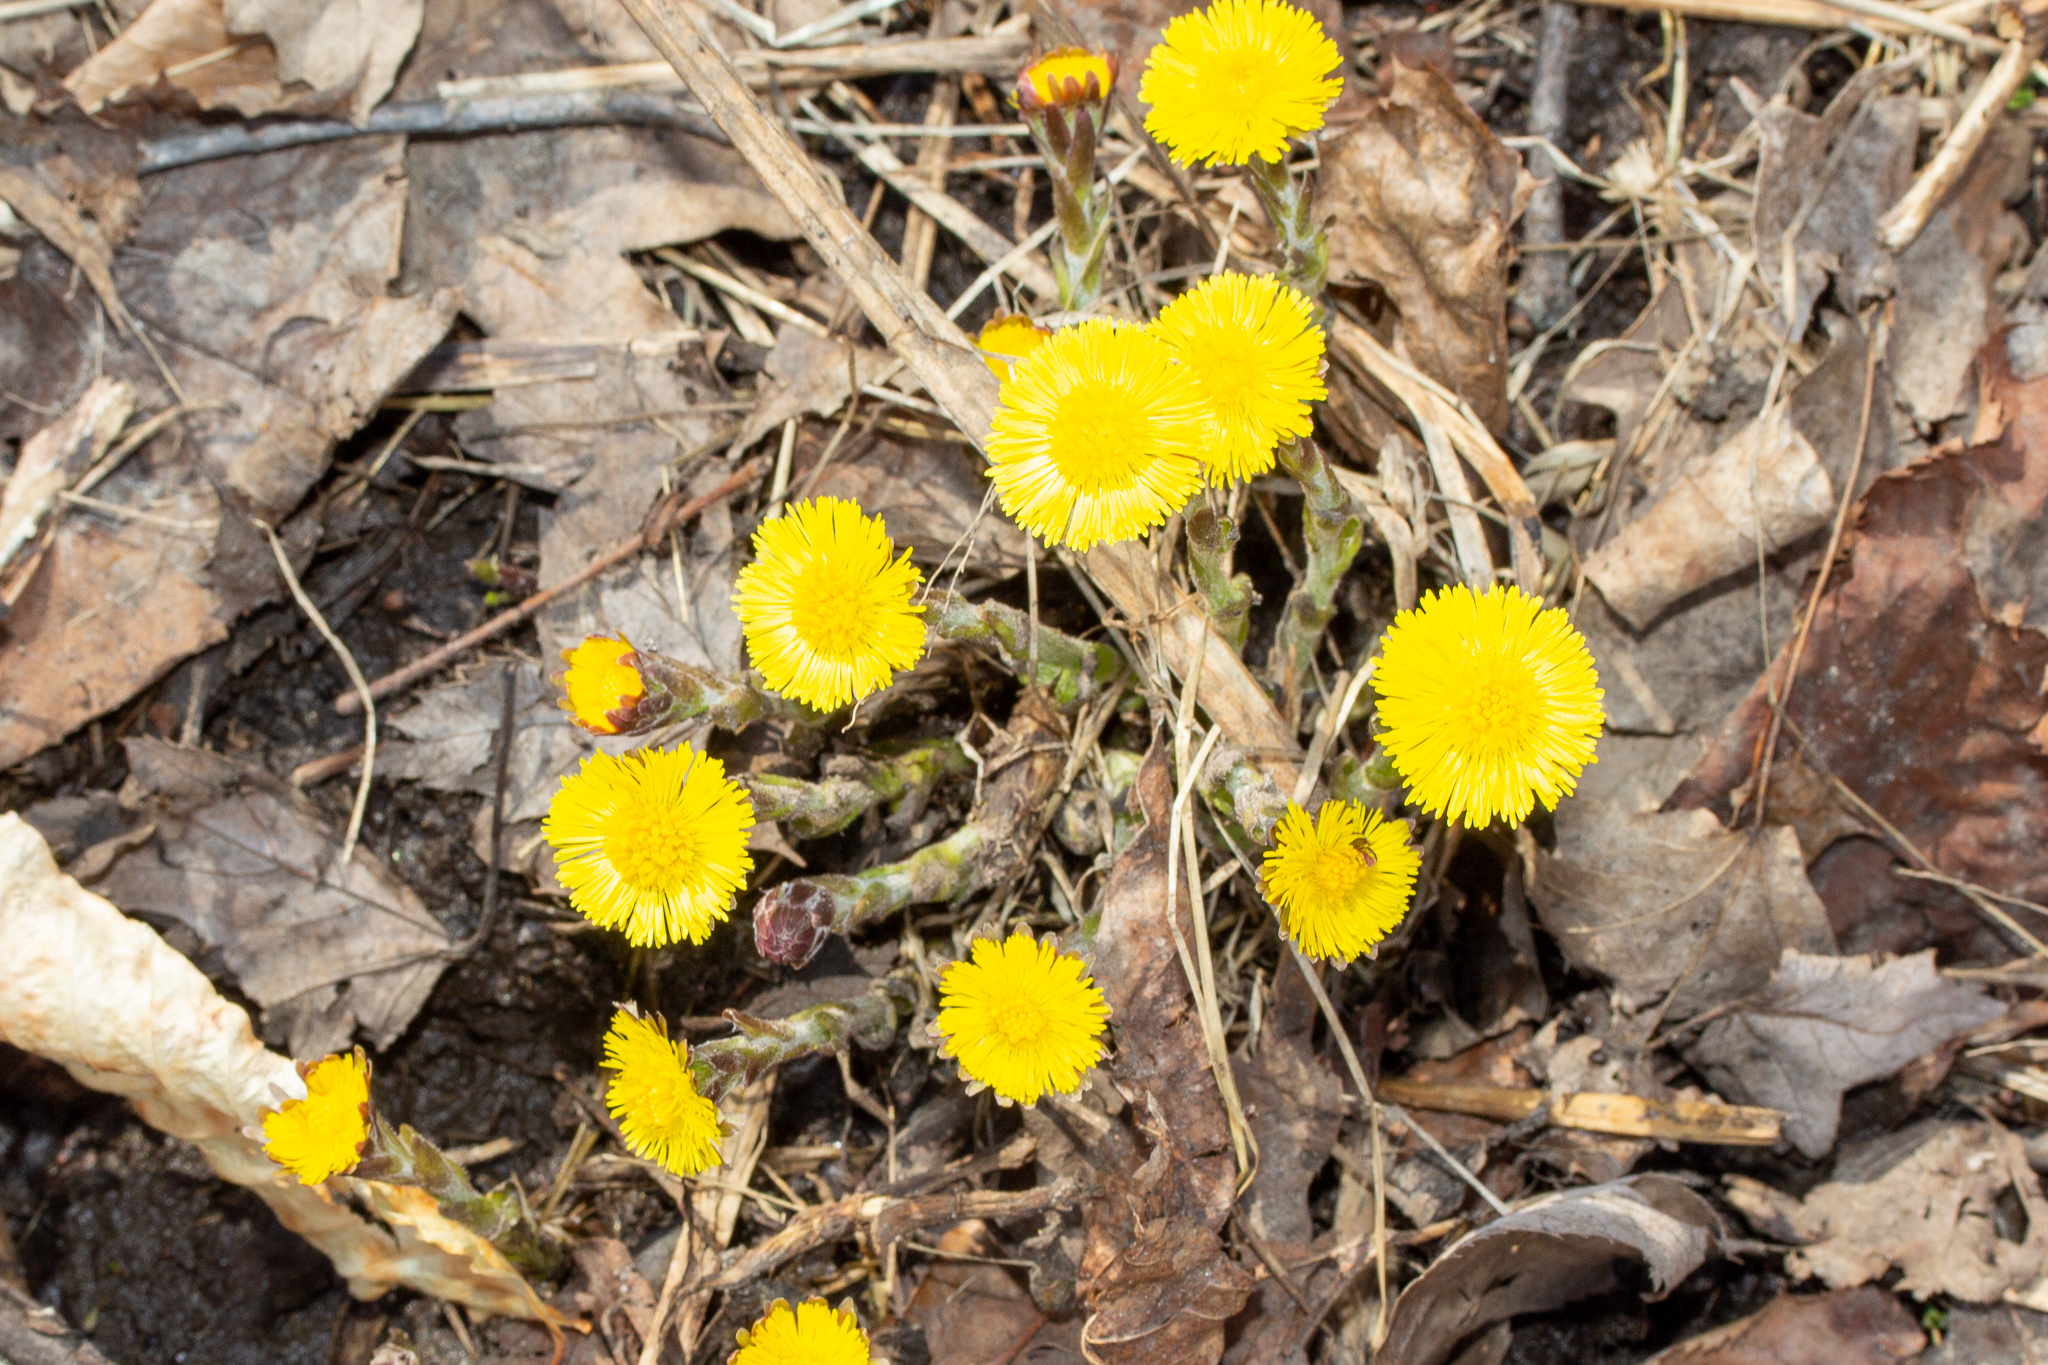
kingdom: Plantae
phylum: Tracheophyta
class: Magnoliopsida
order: Asterales
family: Asteraceae
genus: Tussilago
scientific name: Tussilago farfara
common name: Coltsfoot
